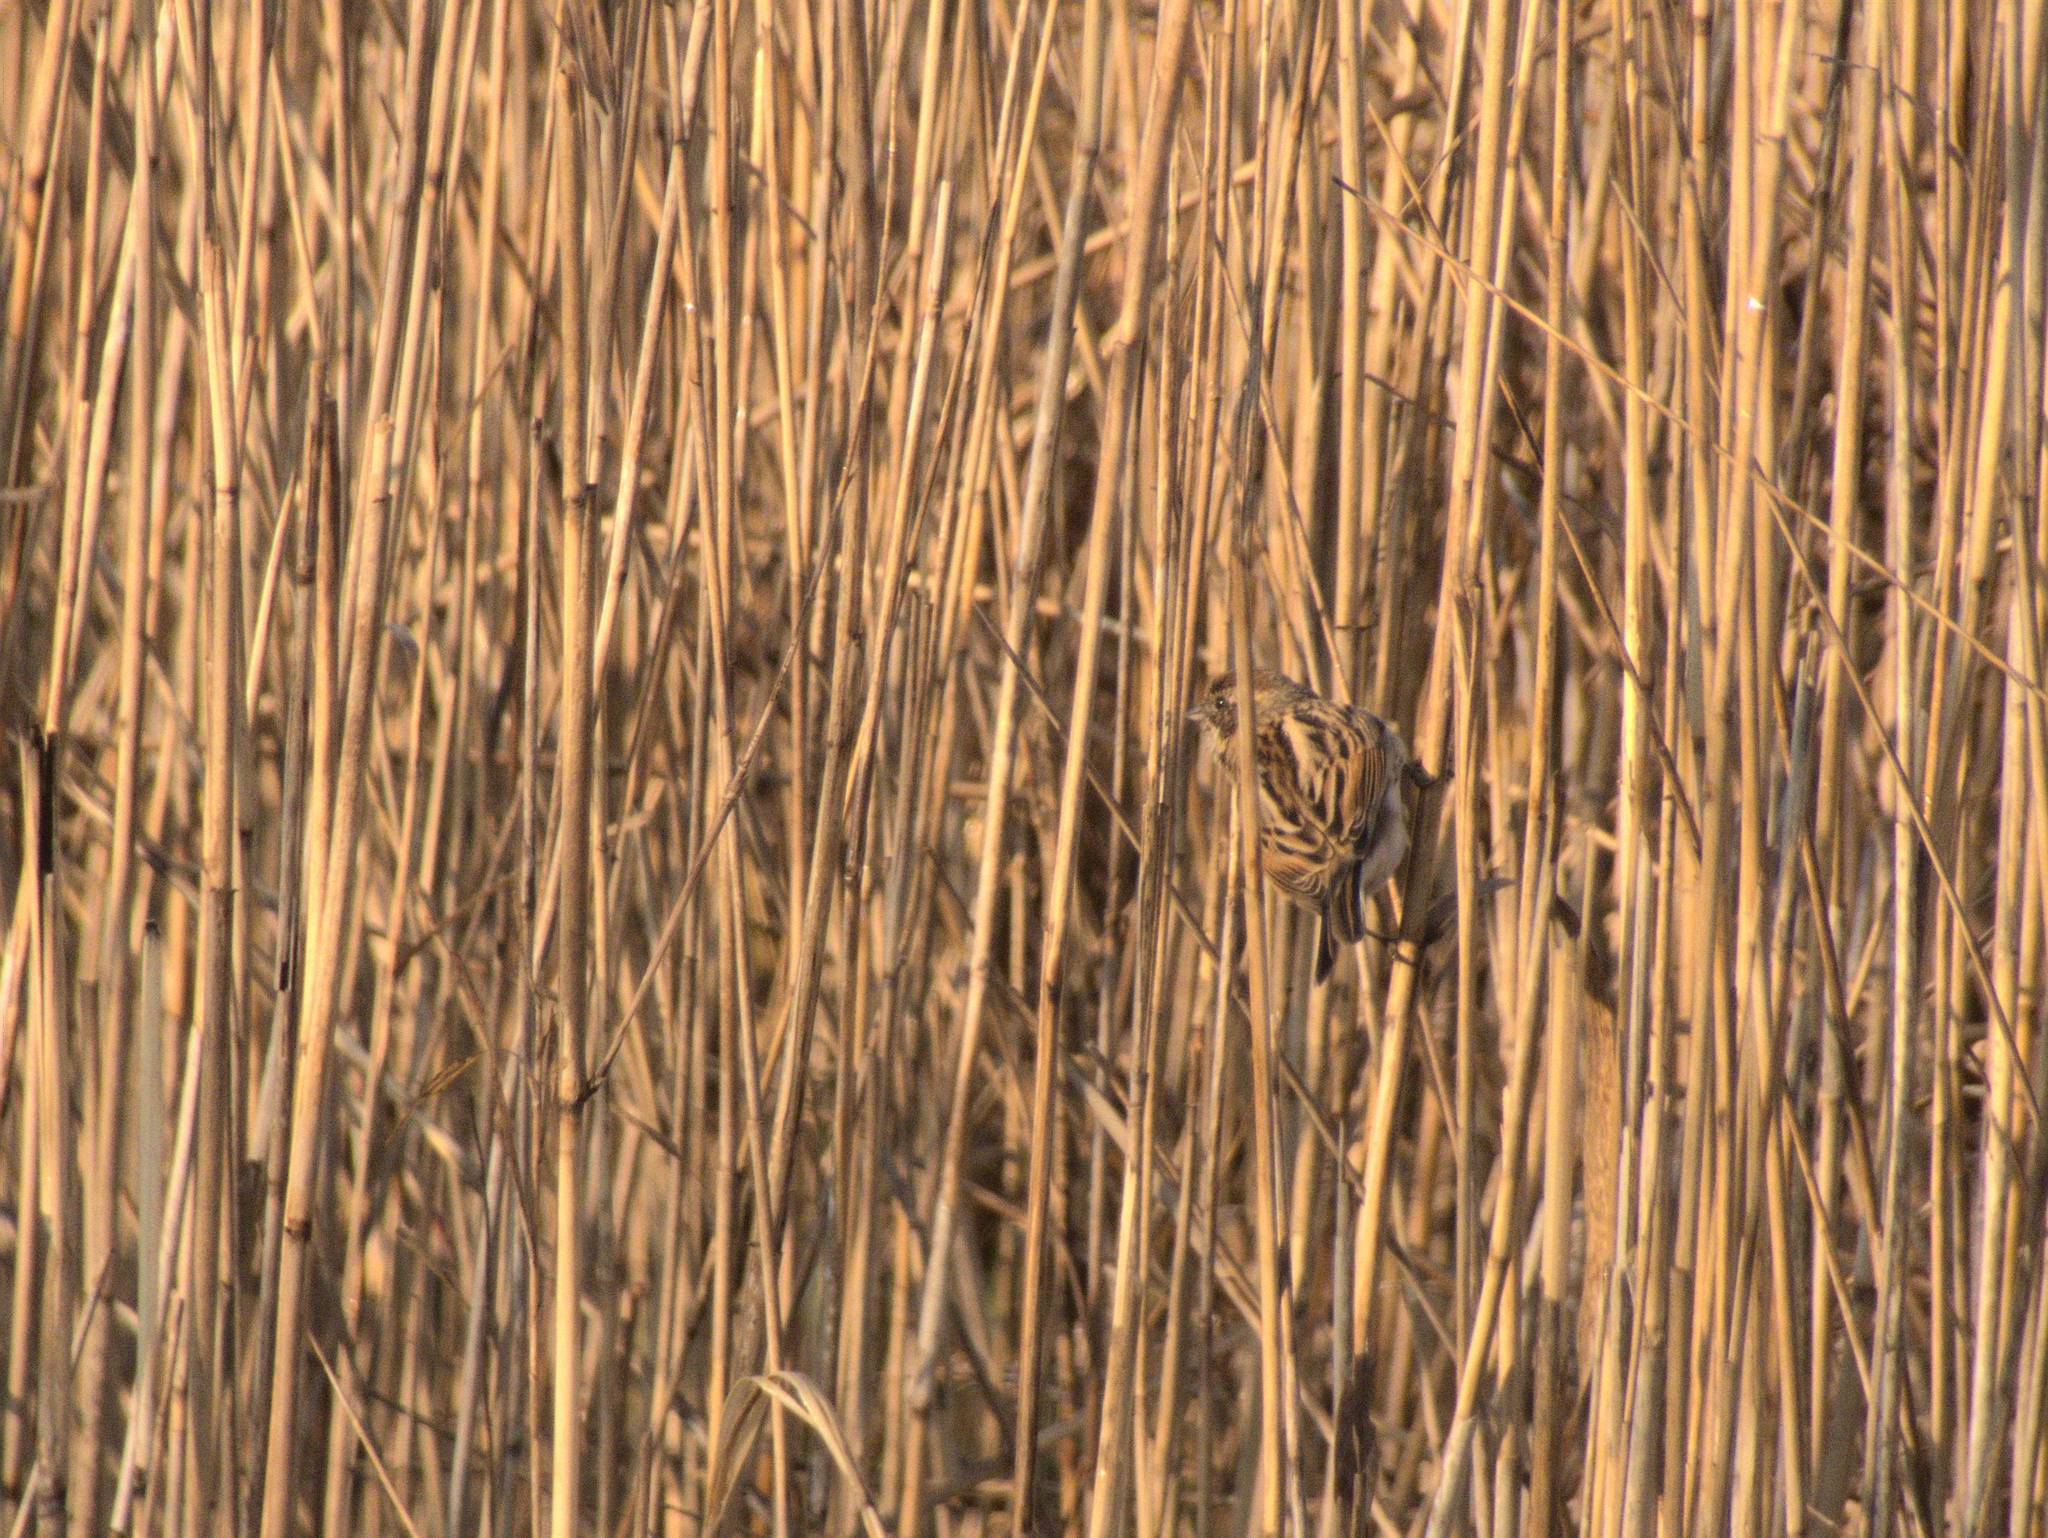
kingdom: Animalia
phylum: Chordata
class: Aves
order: Passeriformes
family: Emberizidae
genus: Emberiza
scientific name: Emberiza schoeniclus
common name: Reed bunting
